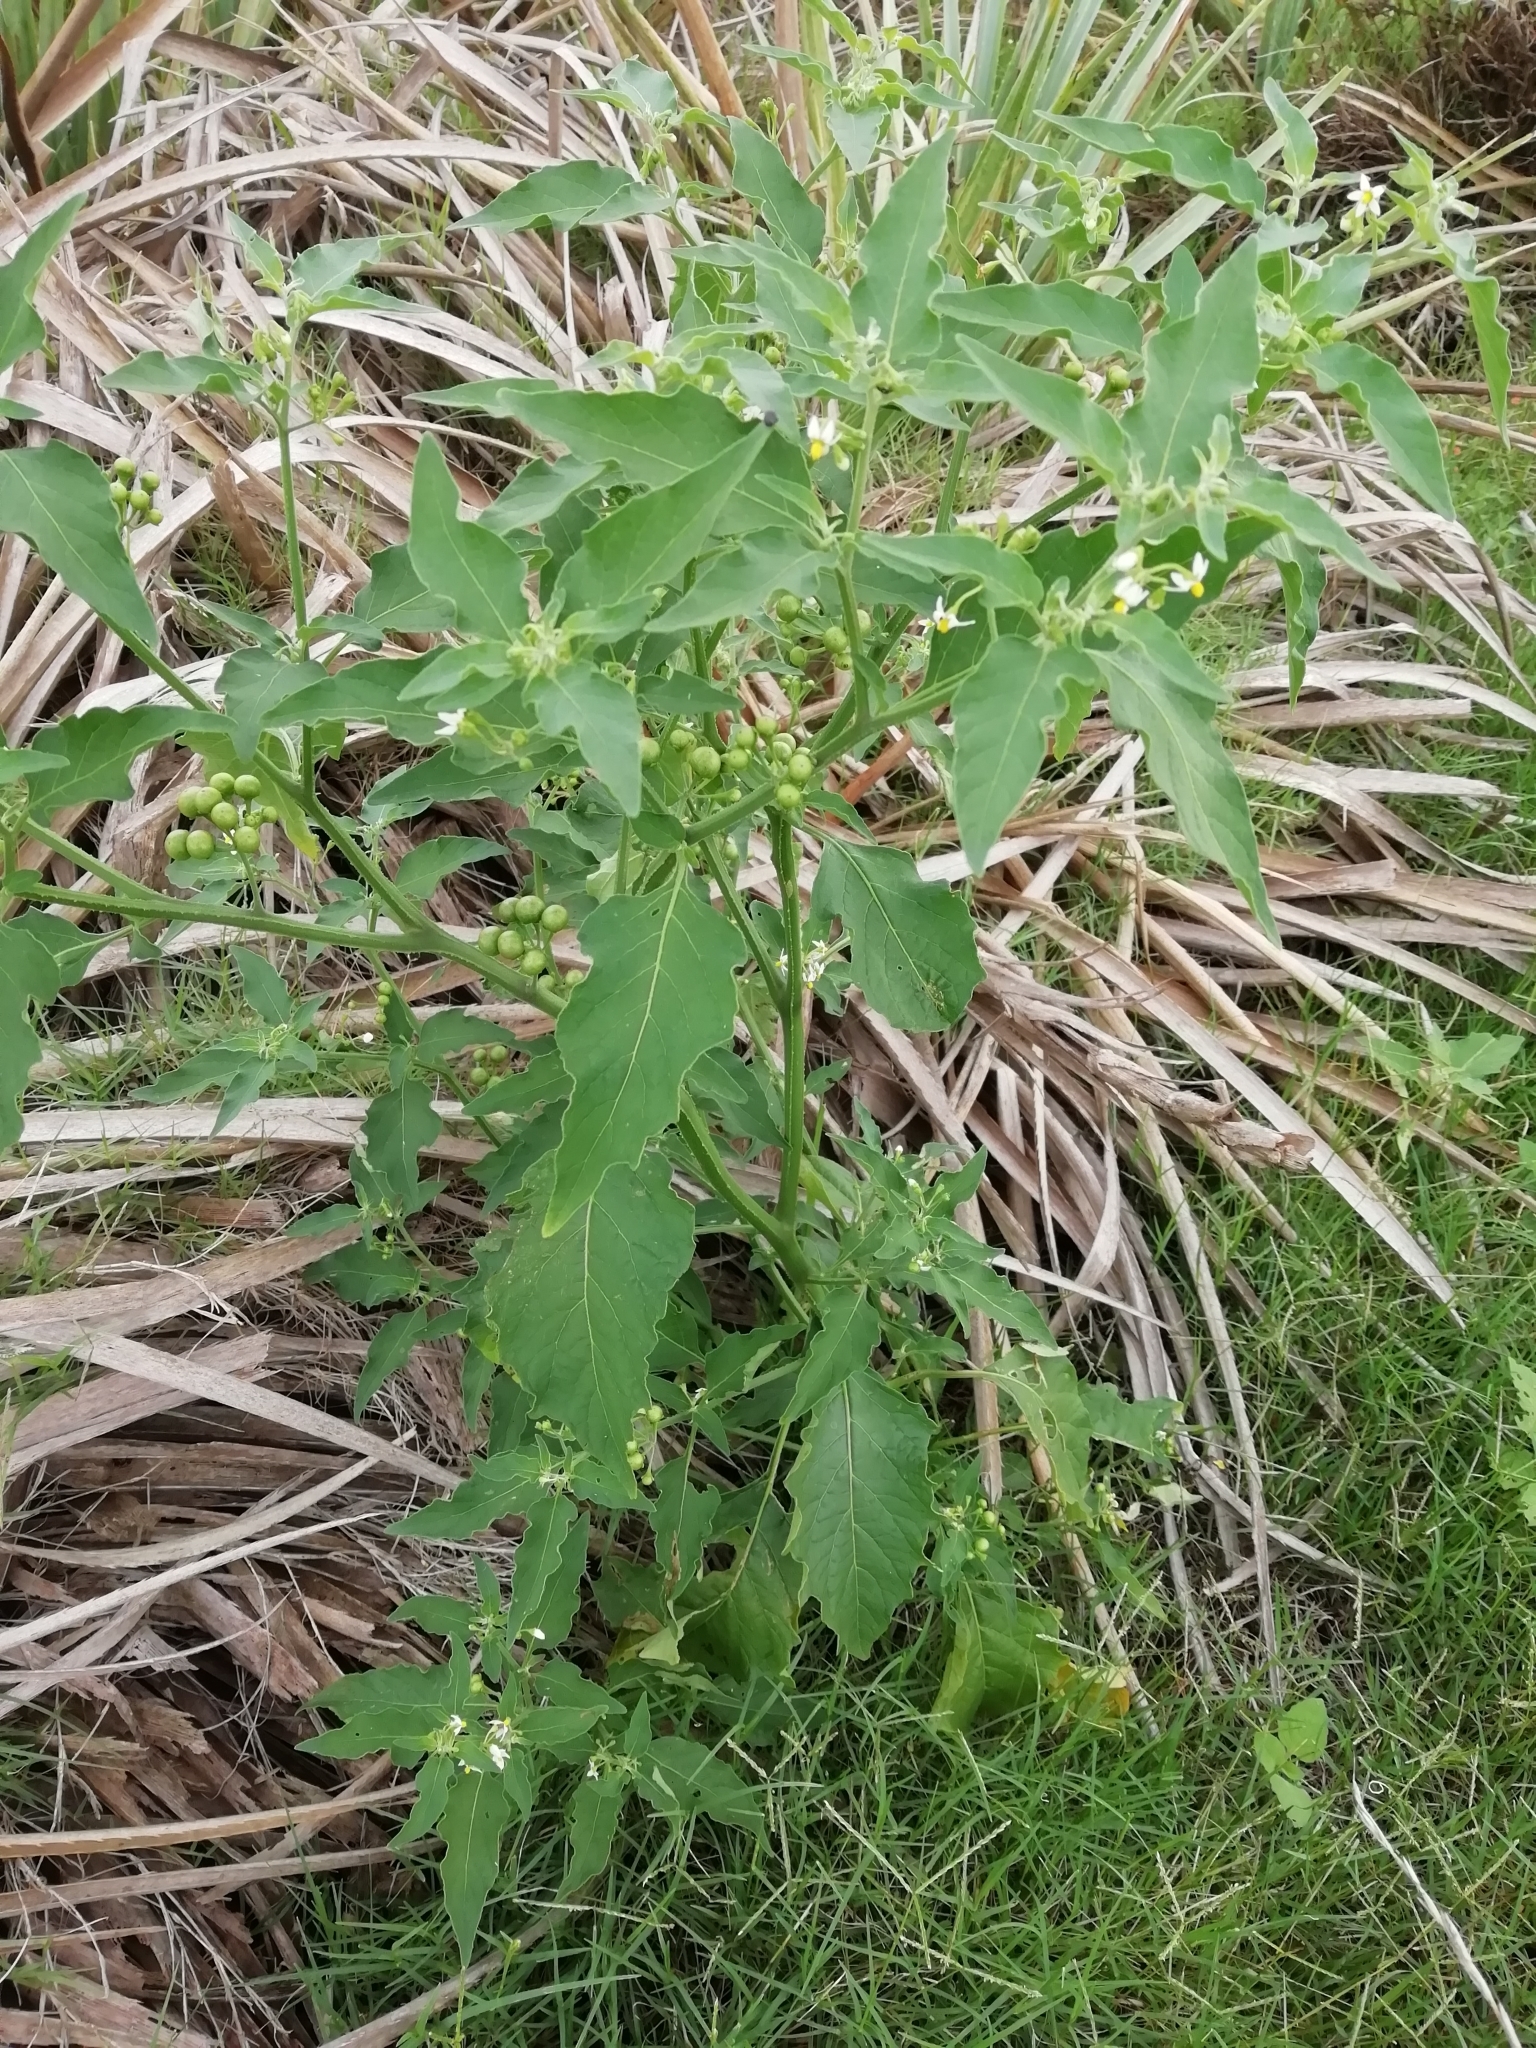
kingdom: Plantae
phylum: Tracheophyta
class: Magnoliopsida
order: Solanales
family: Solanaceae
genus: Solanum
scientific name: Solanum americanum
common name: American black nightshade
